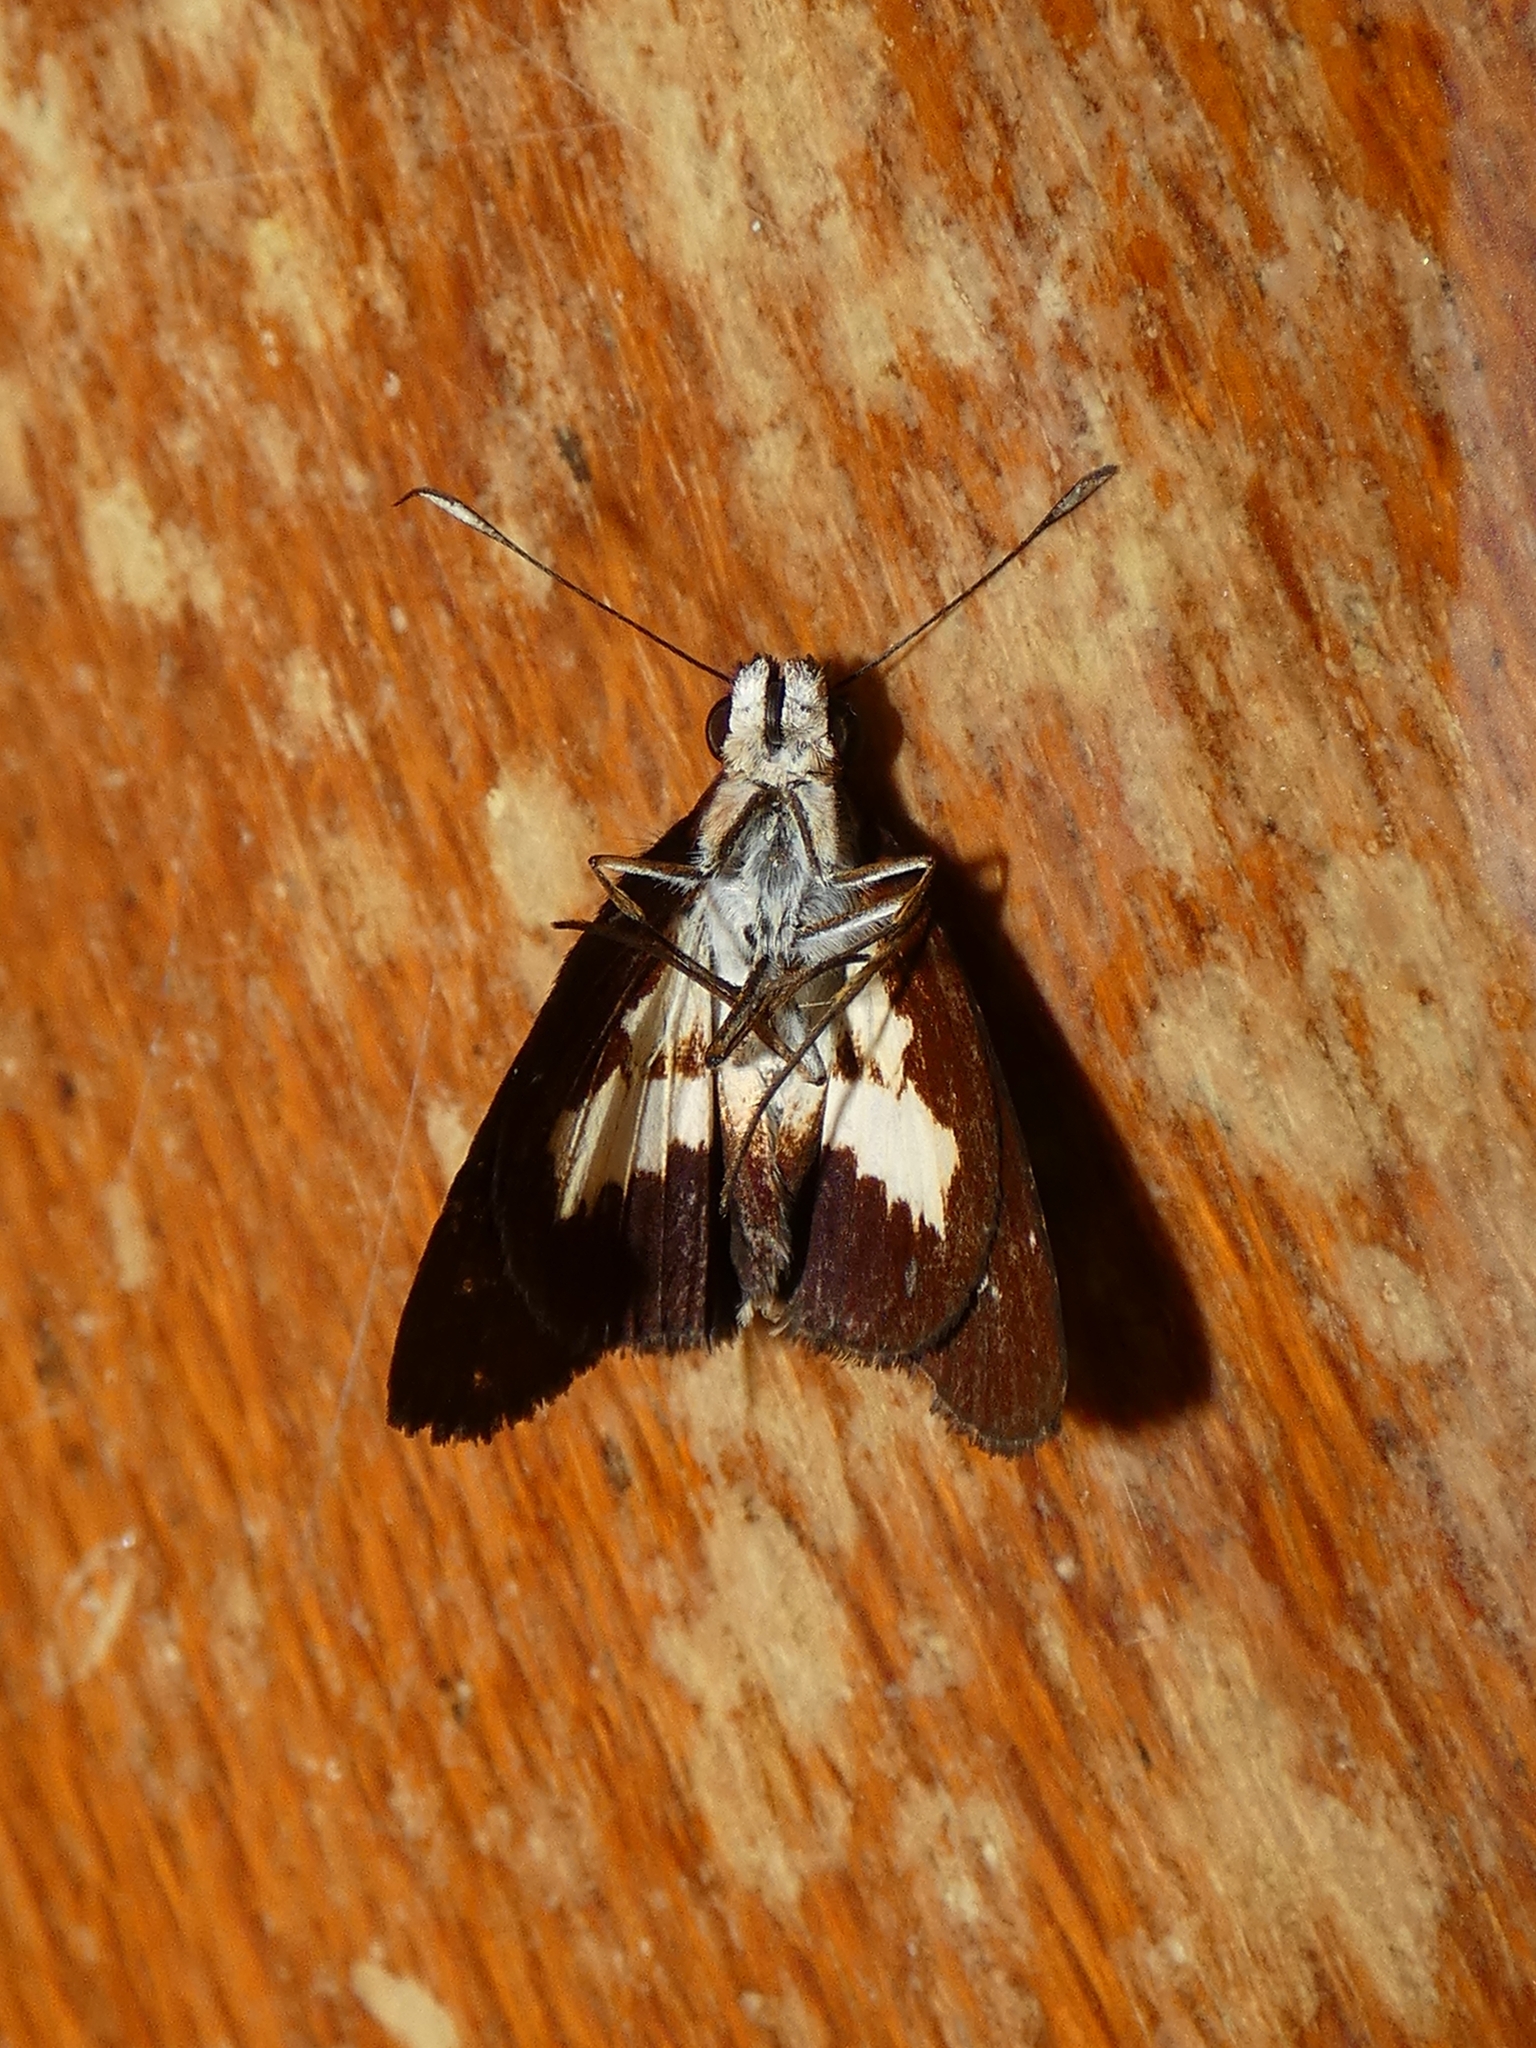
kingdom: Animalia
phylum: Arthropoda
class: Insecta
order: Lepidoptera
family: Hesperiidae
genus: Sabera
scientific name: Sabera caesina
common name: White-clubbed swift
